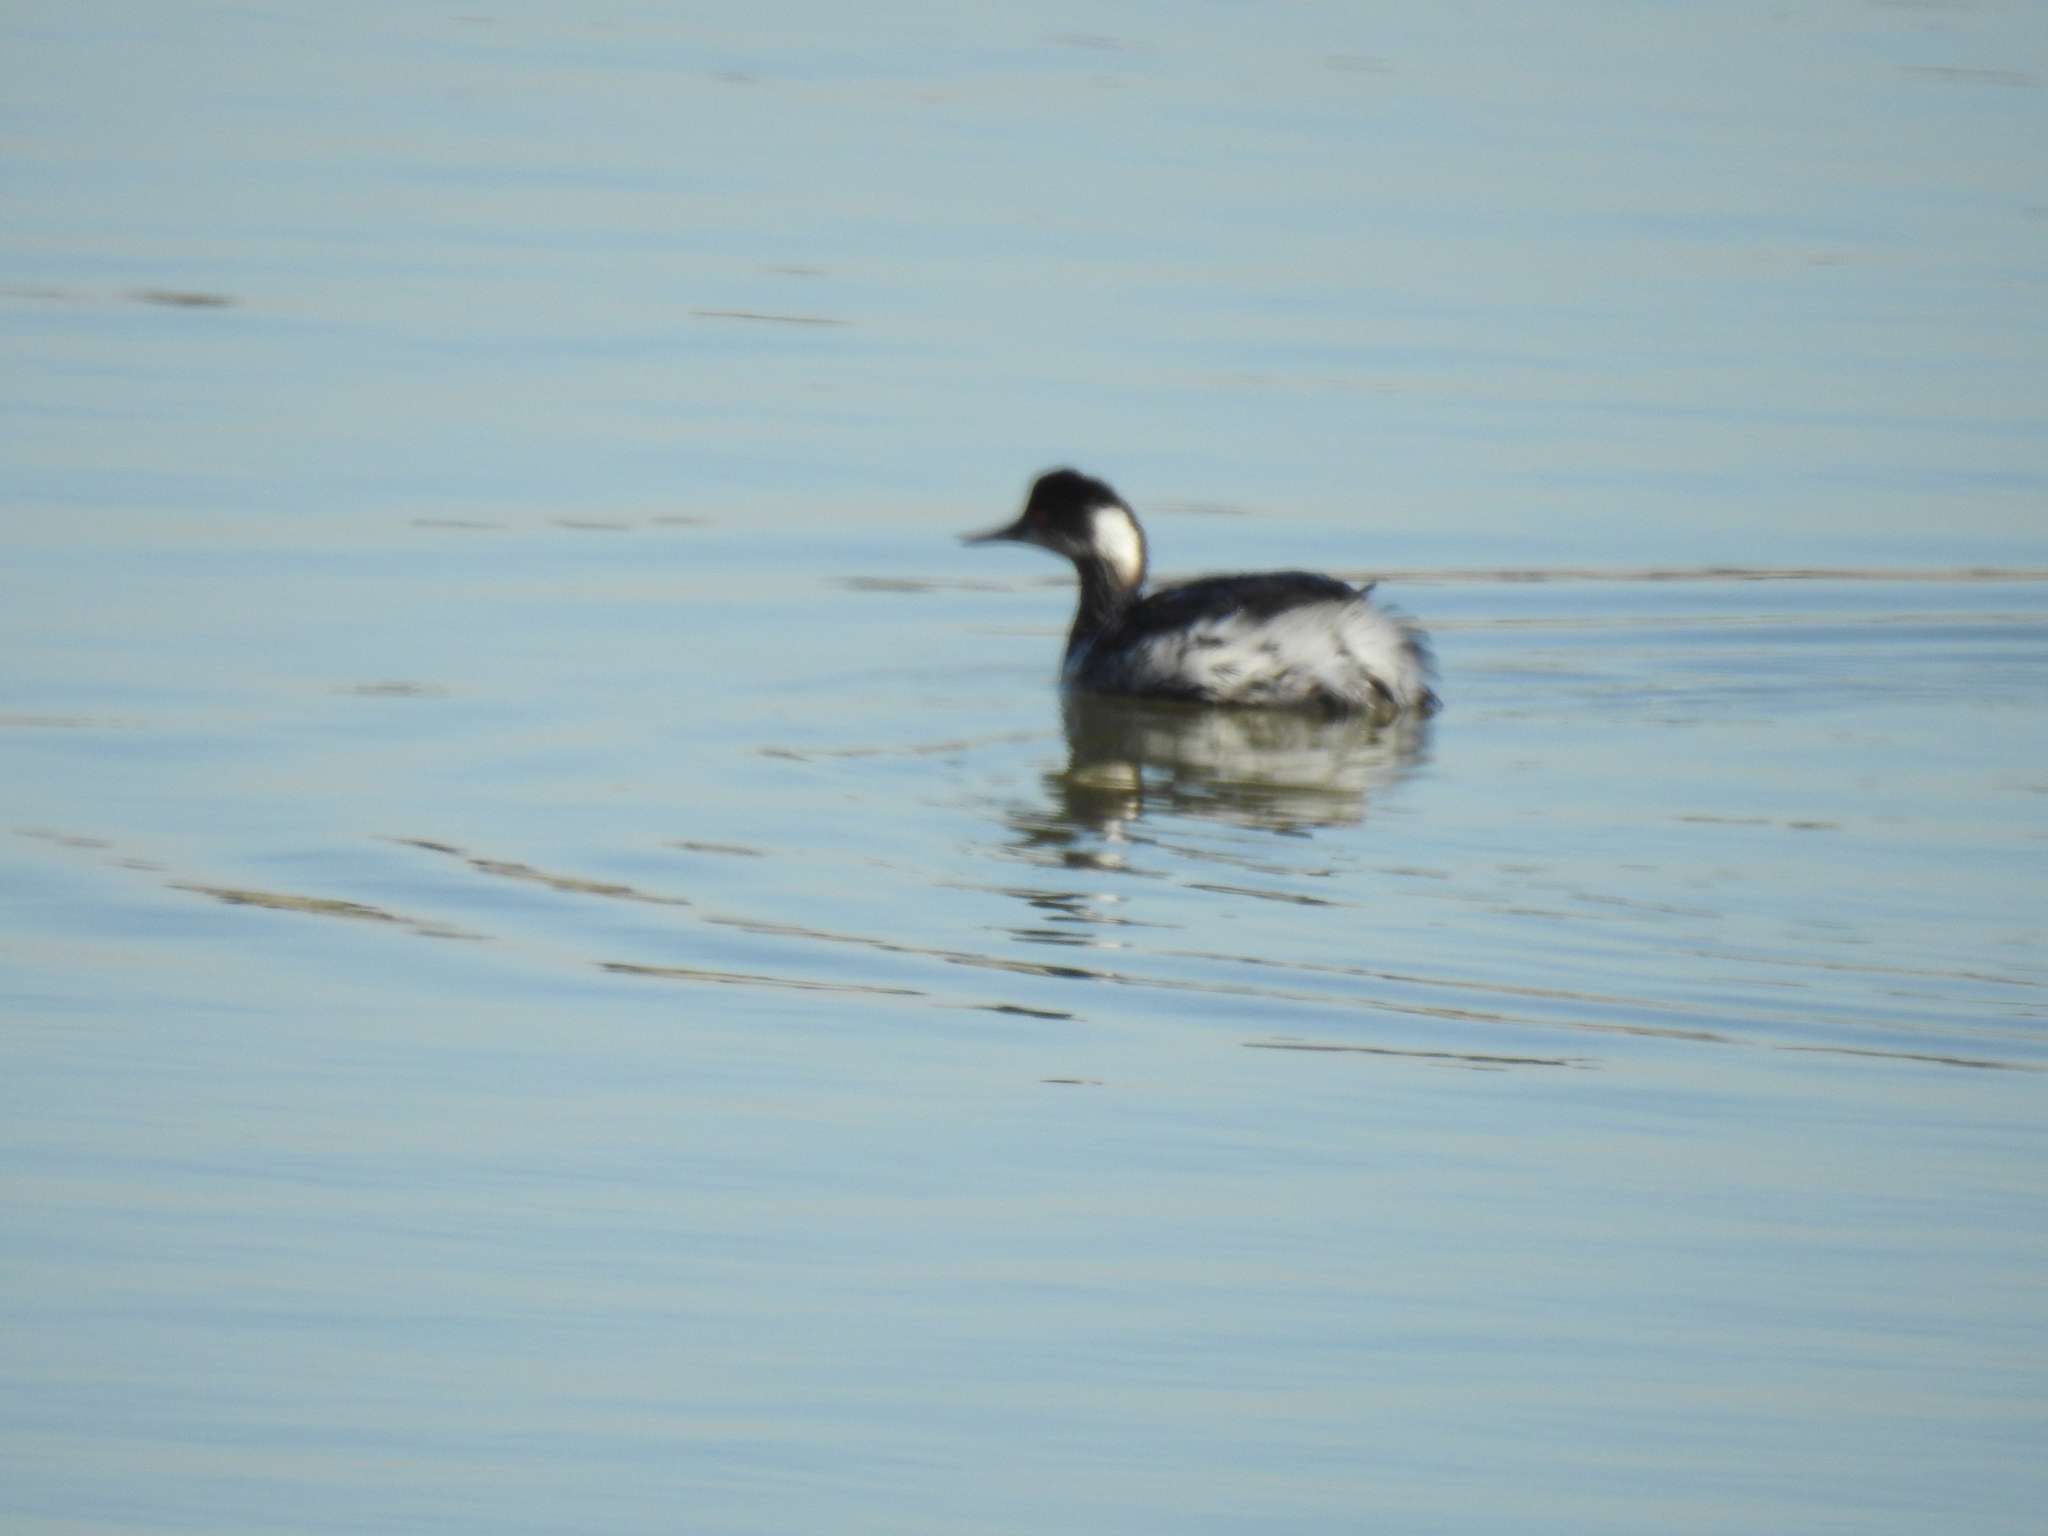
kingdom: Animalia
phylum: Chordata
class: Aves
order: Podicipediformes
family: Podicipedidae
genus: Podiceps
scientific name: Podiceps nigricollis
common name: Black-necked grebe
